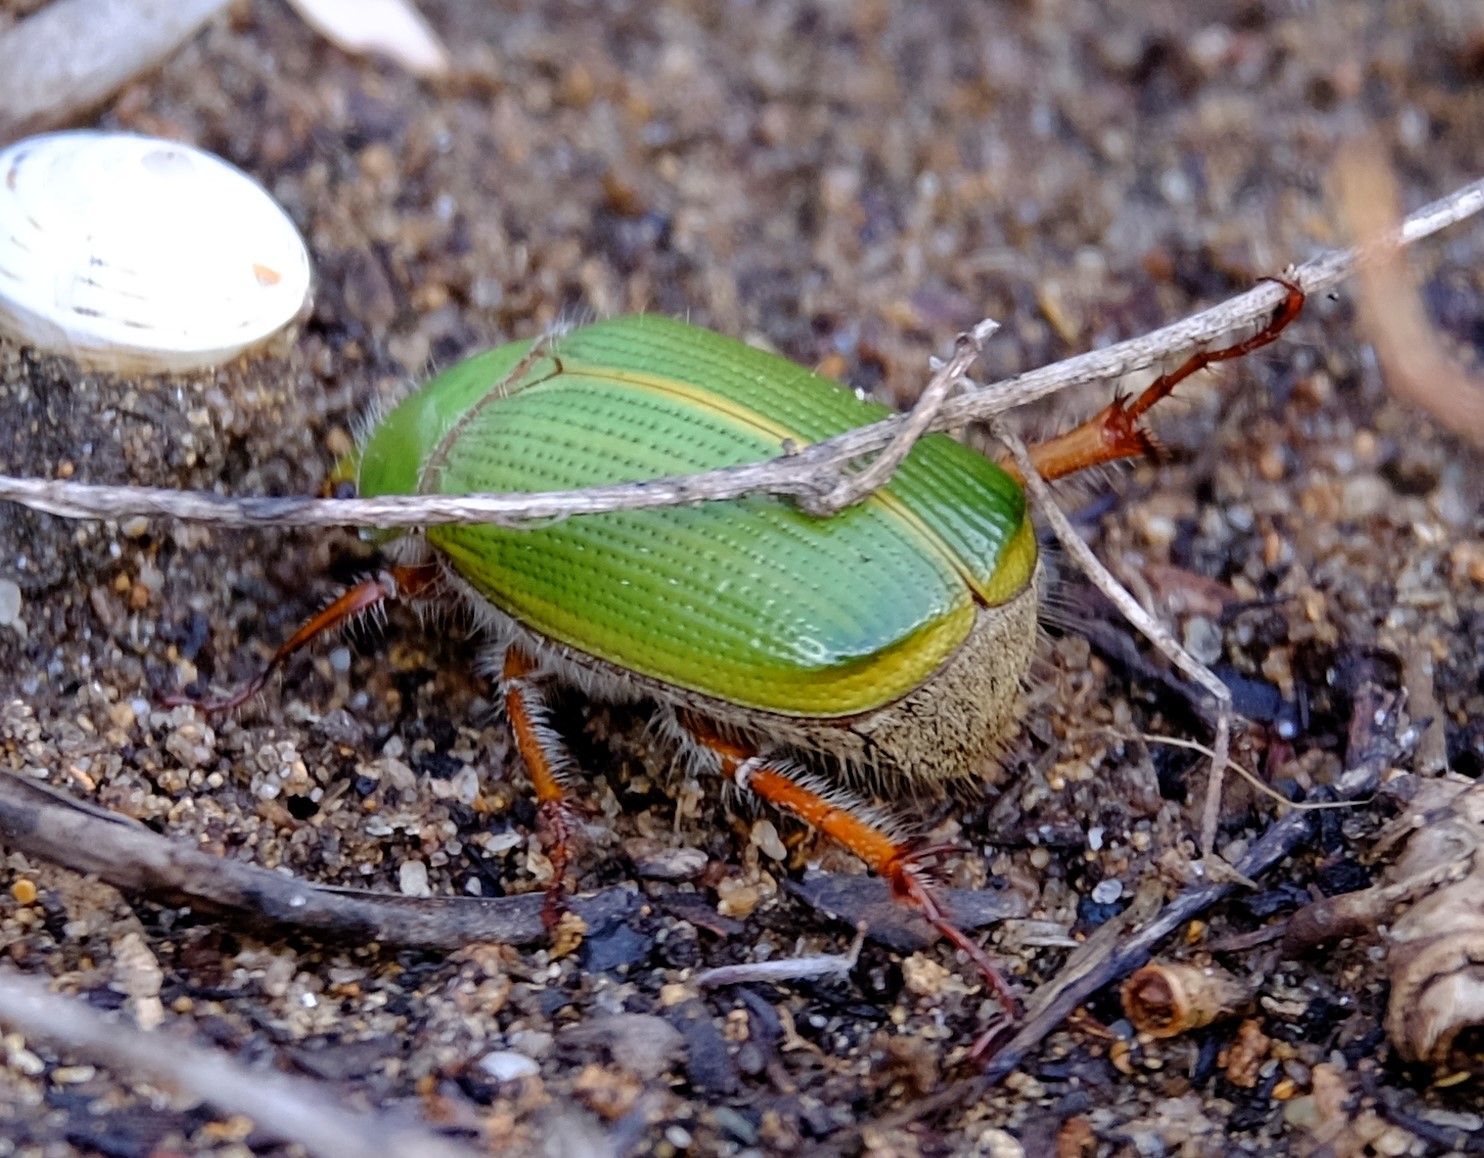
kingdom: Animalia
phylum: Arthropoda
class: Insecta
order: Coleoptera
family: Scarabaeidae
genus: Xylonichus
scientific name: Xylonichus eucalypti
